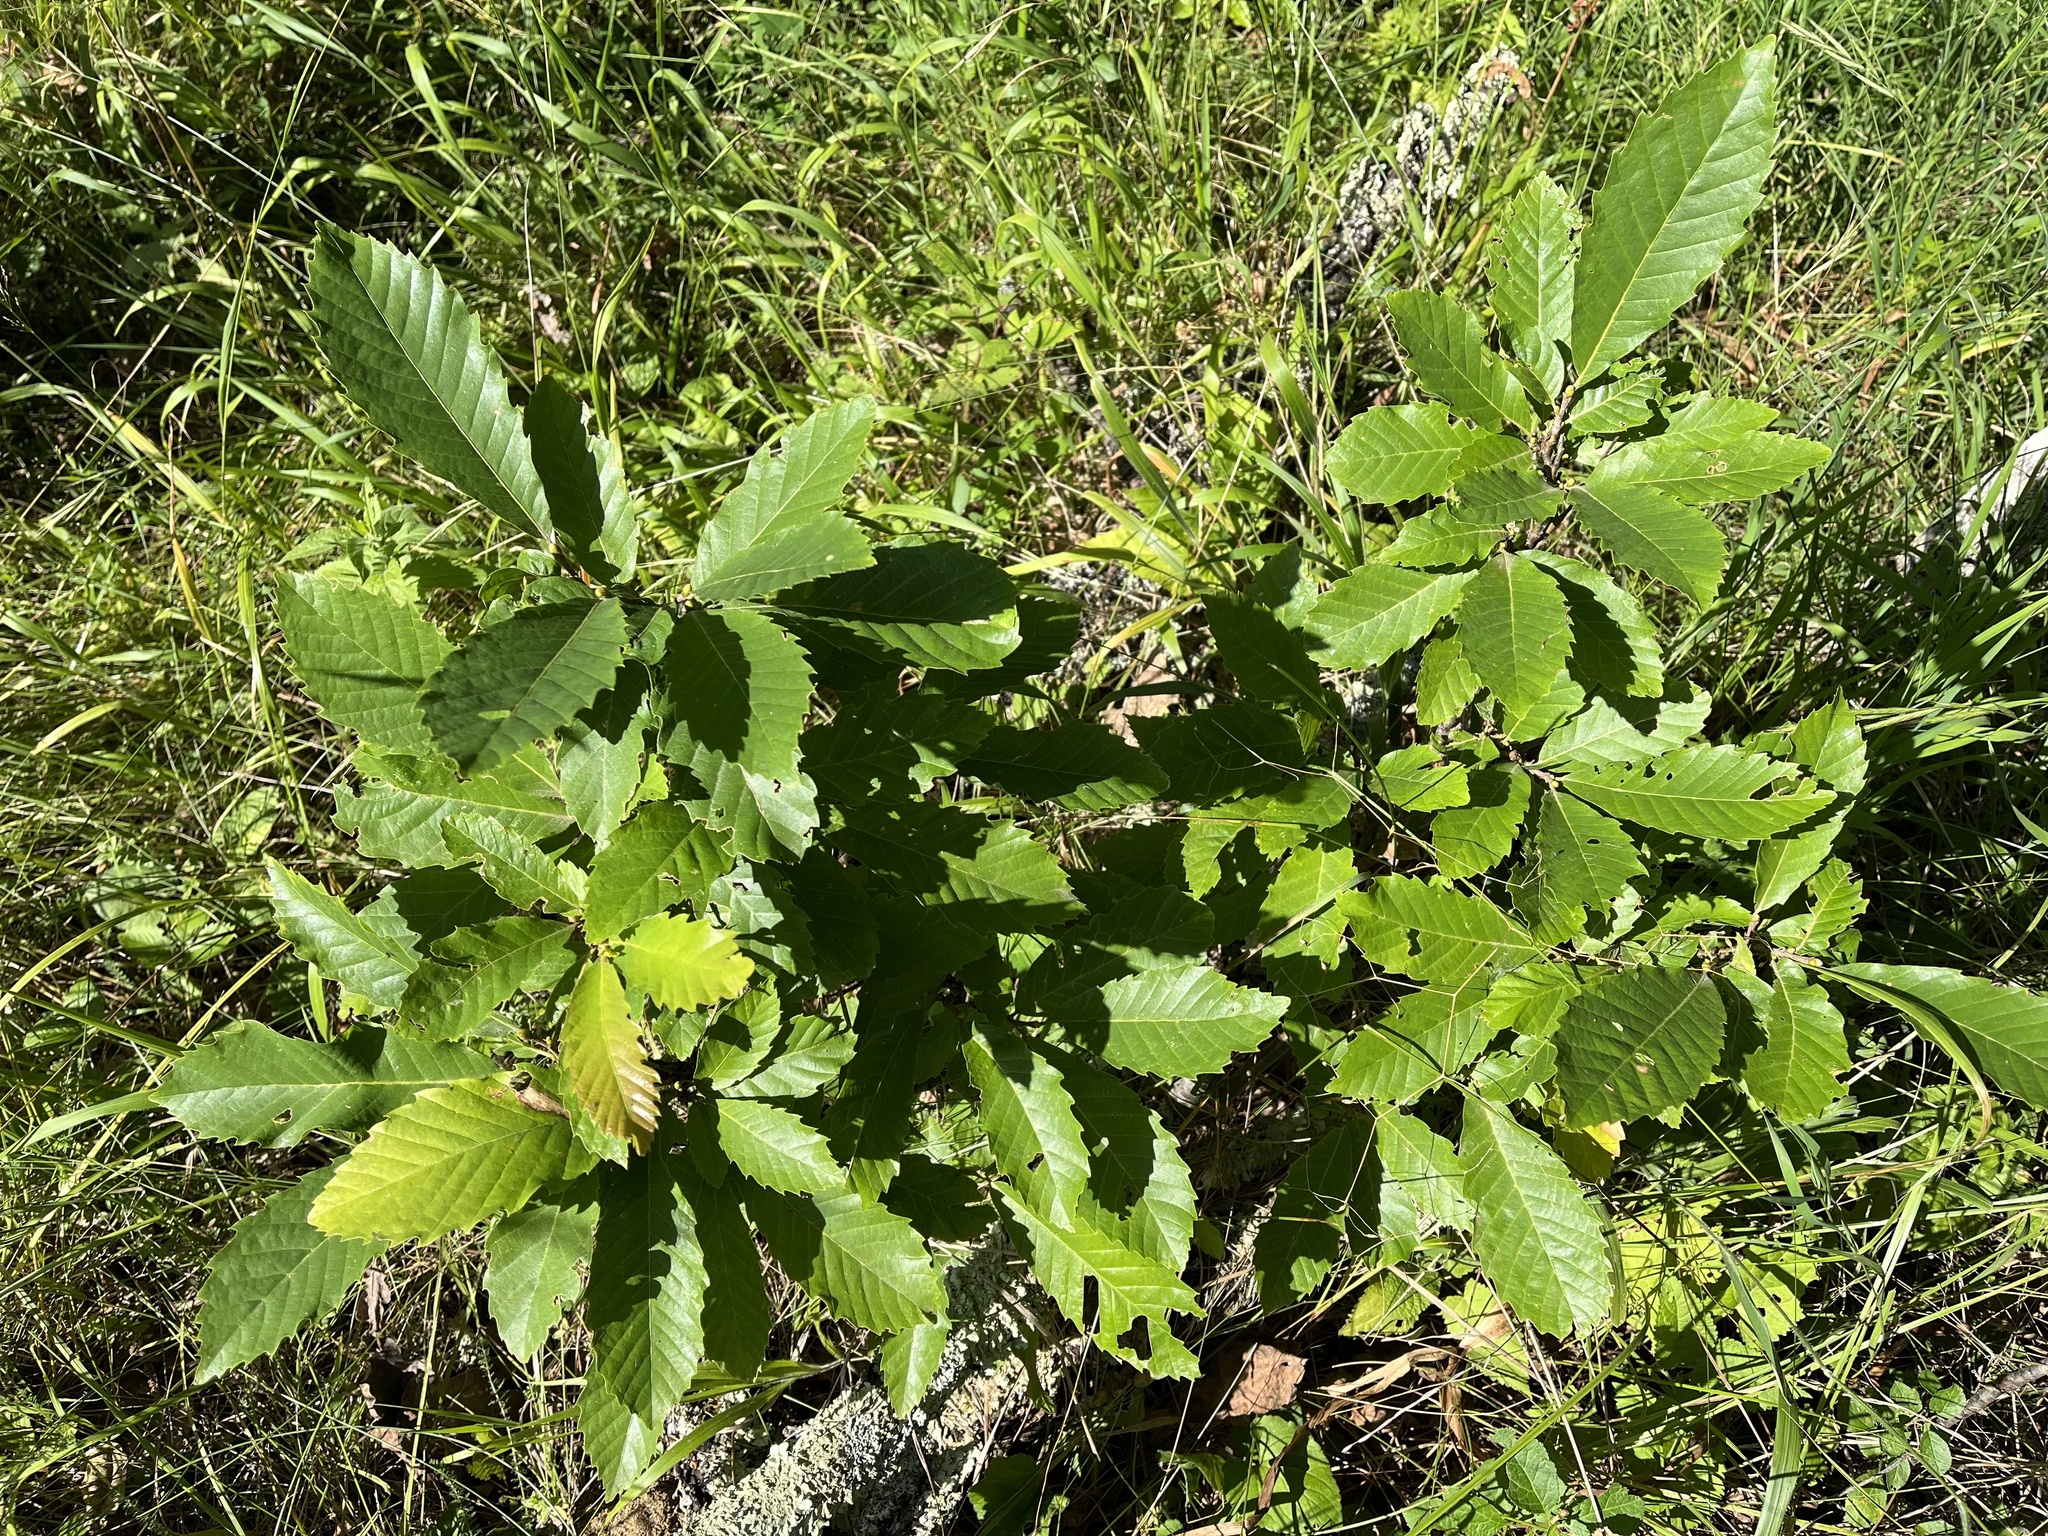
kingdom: Plantae
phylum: Tracheophyta
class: Magnoliopsida
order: Fagales
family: Fagaceae
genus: Castanea
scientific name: Castanea sativa
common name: Sweet chestnut
